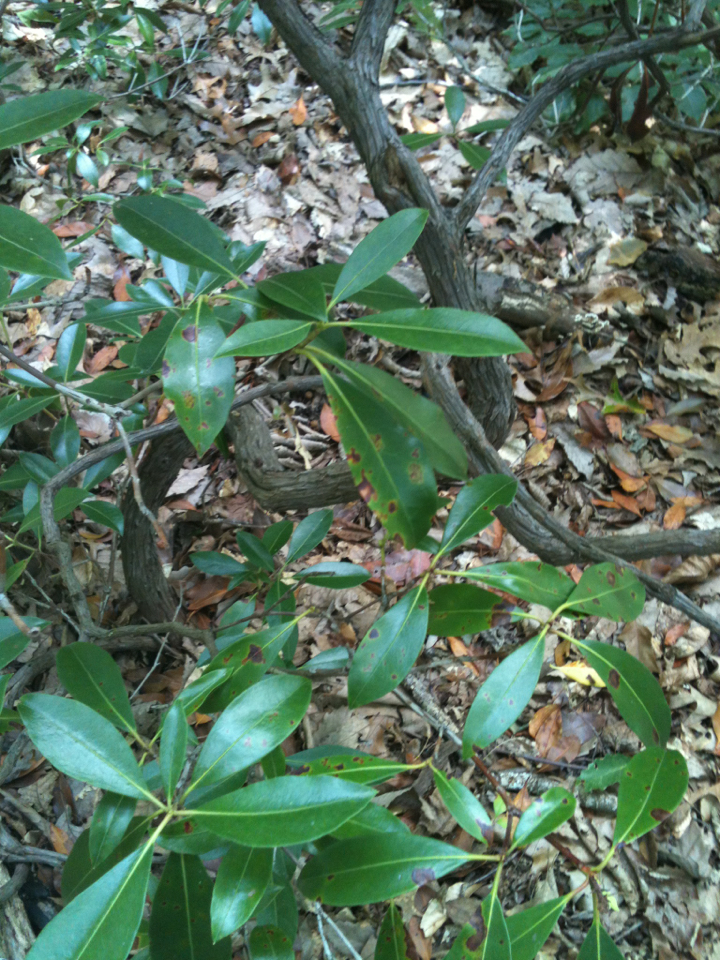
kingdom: Plantae
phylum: Tracheophyta
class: Magnoliopsida
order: Ericales
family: Ericaceae
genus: Kalmia
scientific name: Kalmia latifolia
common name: Mountain-laurel
